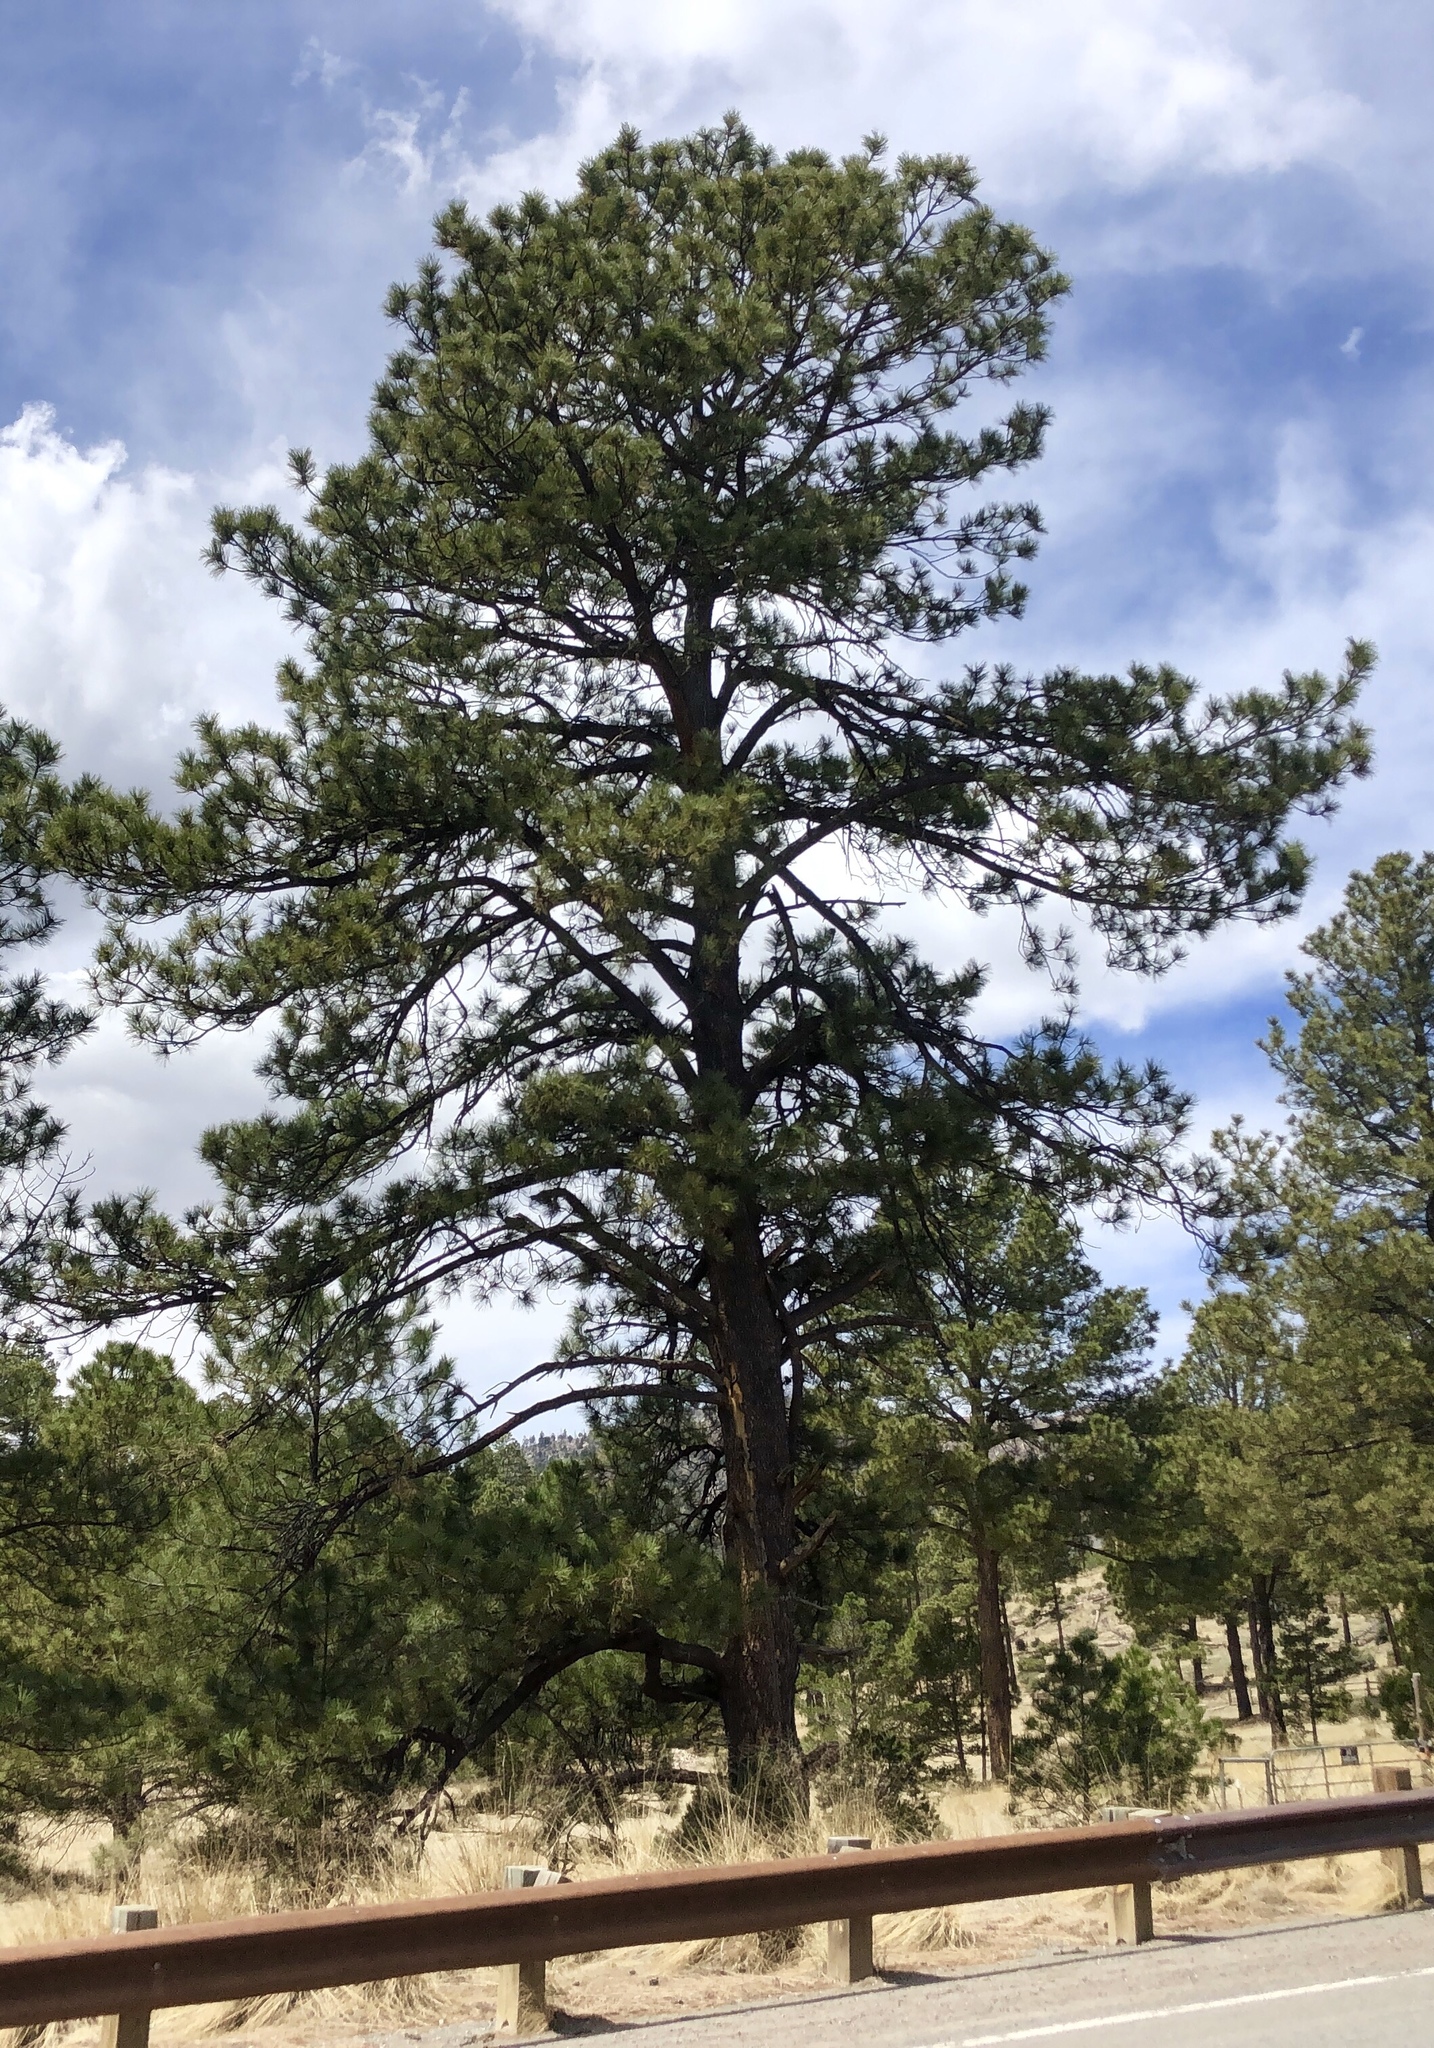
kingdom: Plantae
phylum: Tracheophyta
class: Pinopsida
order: Pinales
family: Pinaceae
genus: Pinus
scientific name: Pinus ponderosa
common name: Western yellow-pine
